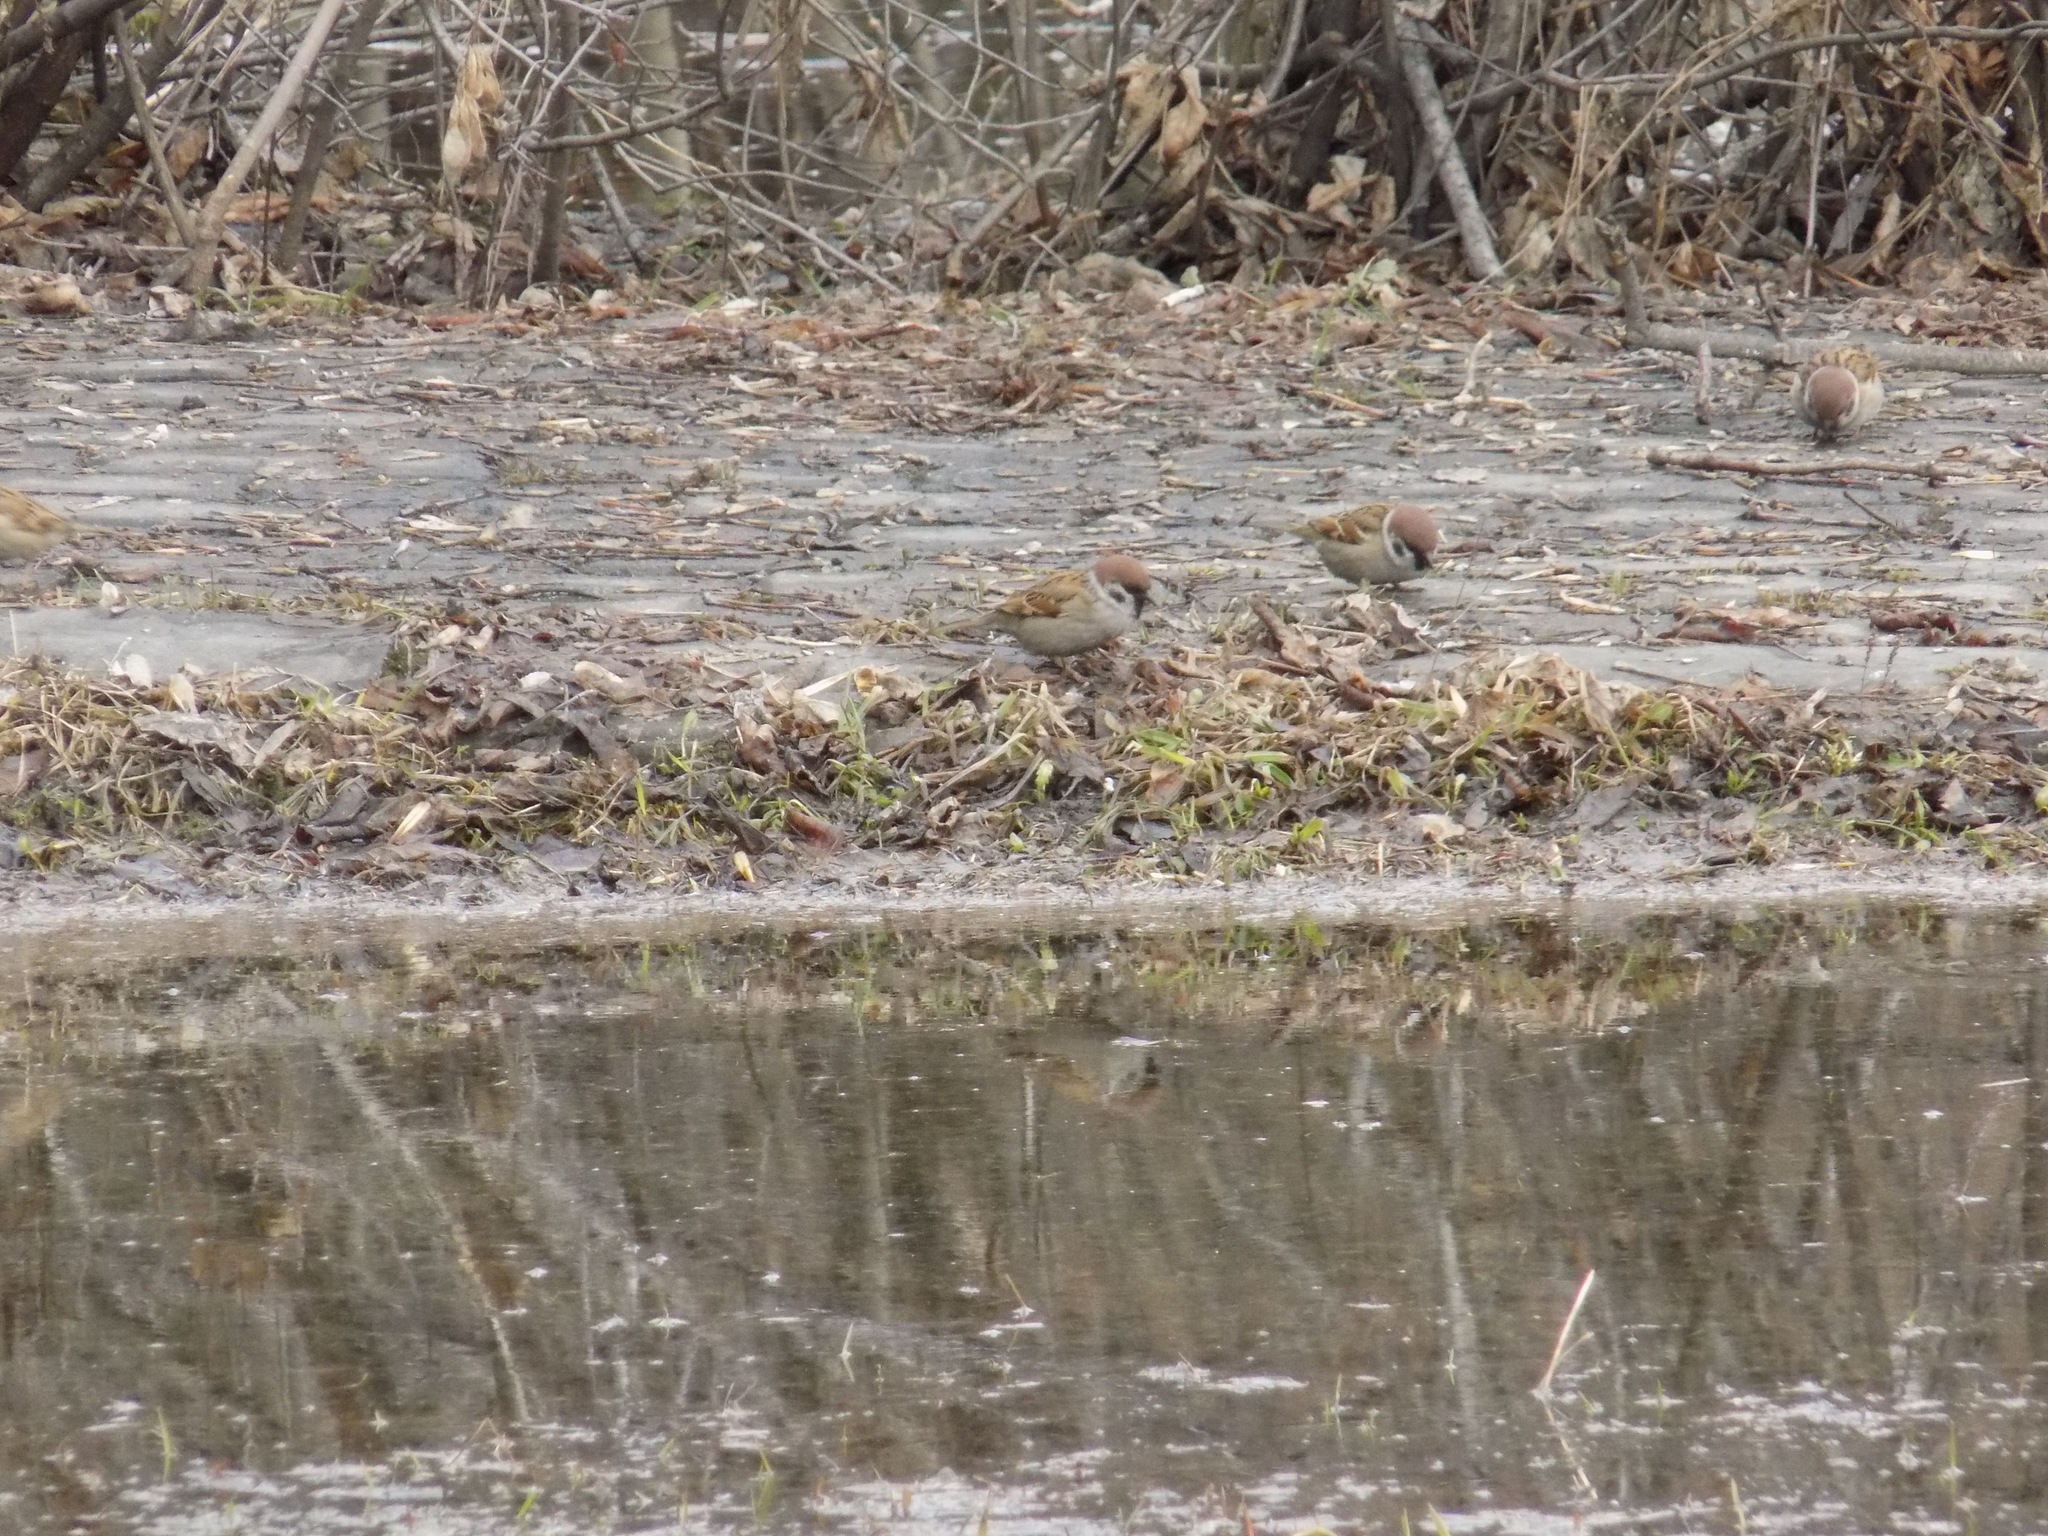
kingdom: Animalia
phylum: Chordata
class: Aves
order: Passeriformes
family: Passeridae
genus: Passer
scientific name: Passer montanus
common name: Eurasian tree sparrow
